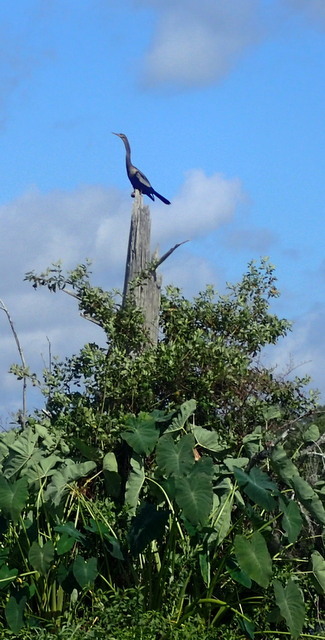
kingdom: Animalia
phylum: Chordata
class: Aves
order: Suliformes
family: Anhingidae
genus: Anhinga
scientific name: Anhinga anhinga
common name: Anhinga
